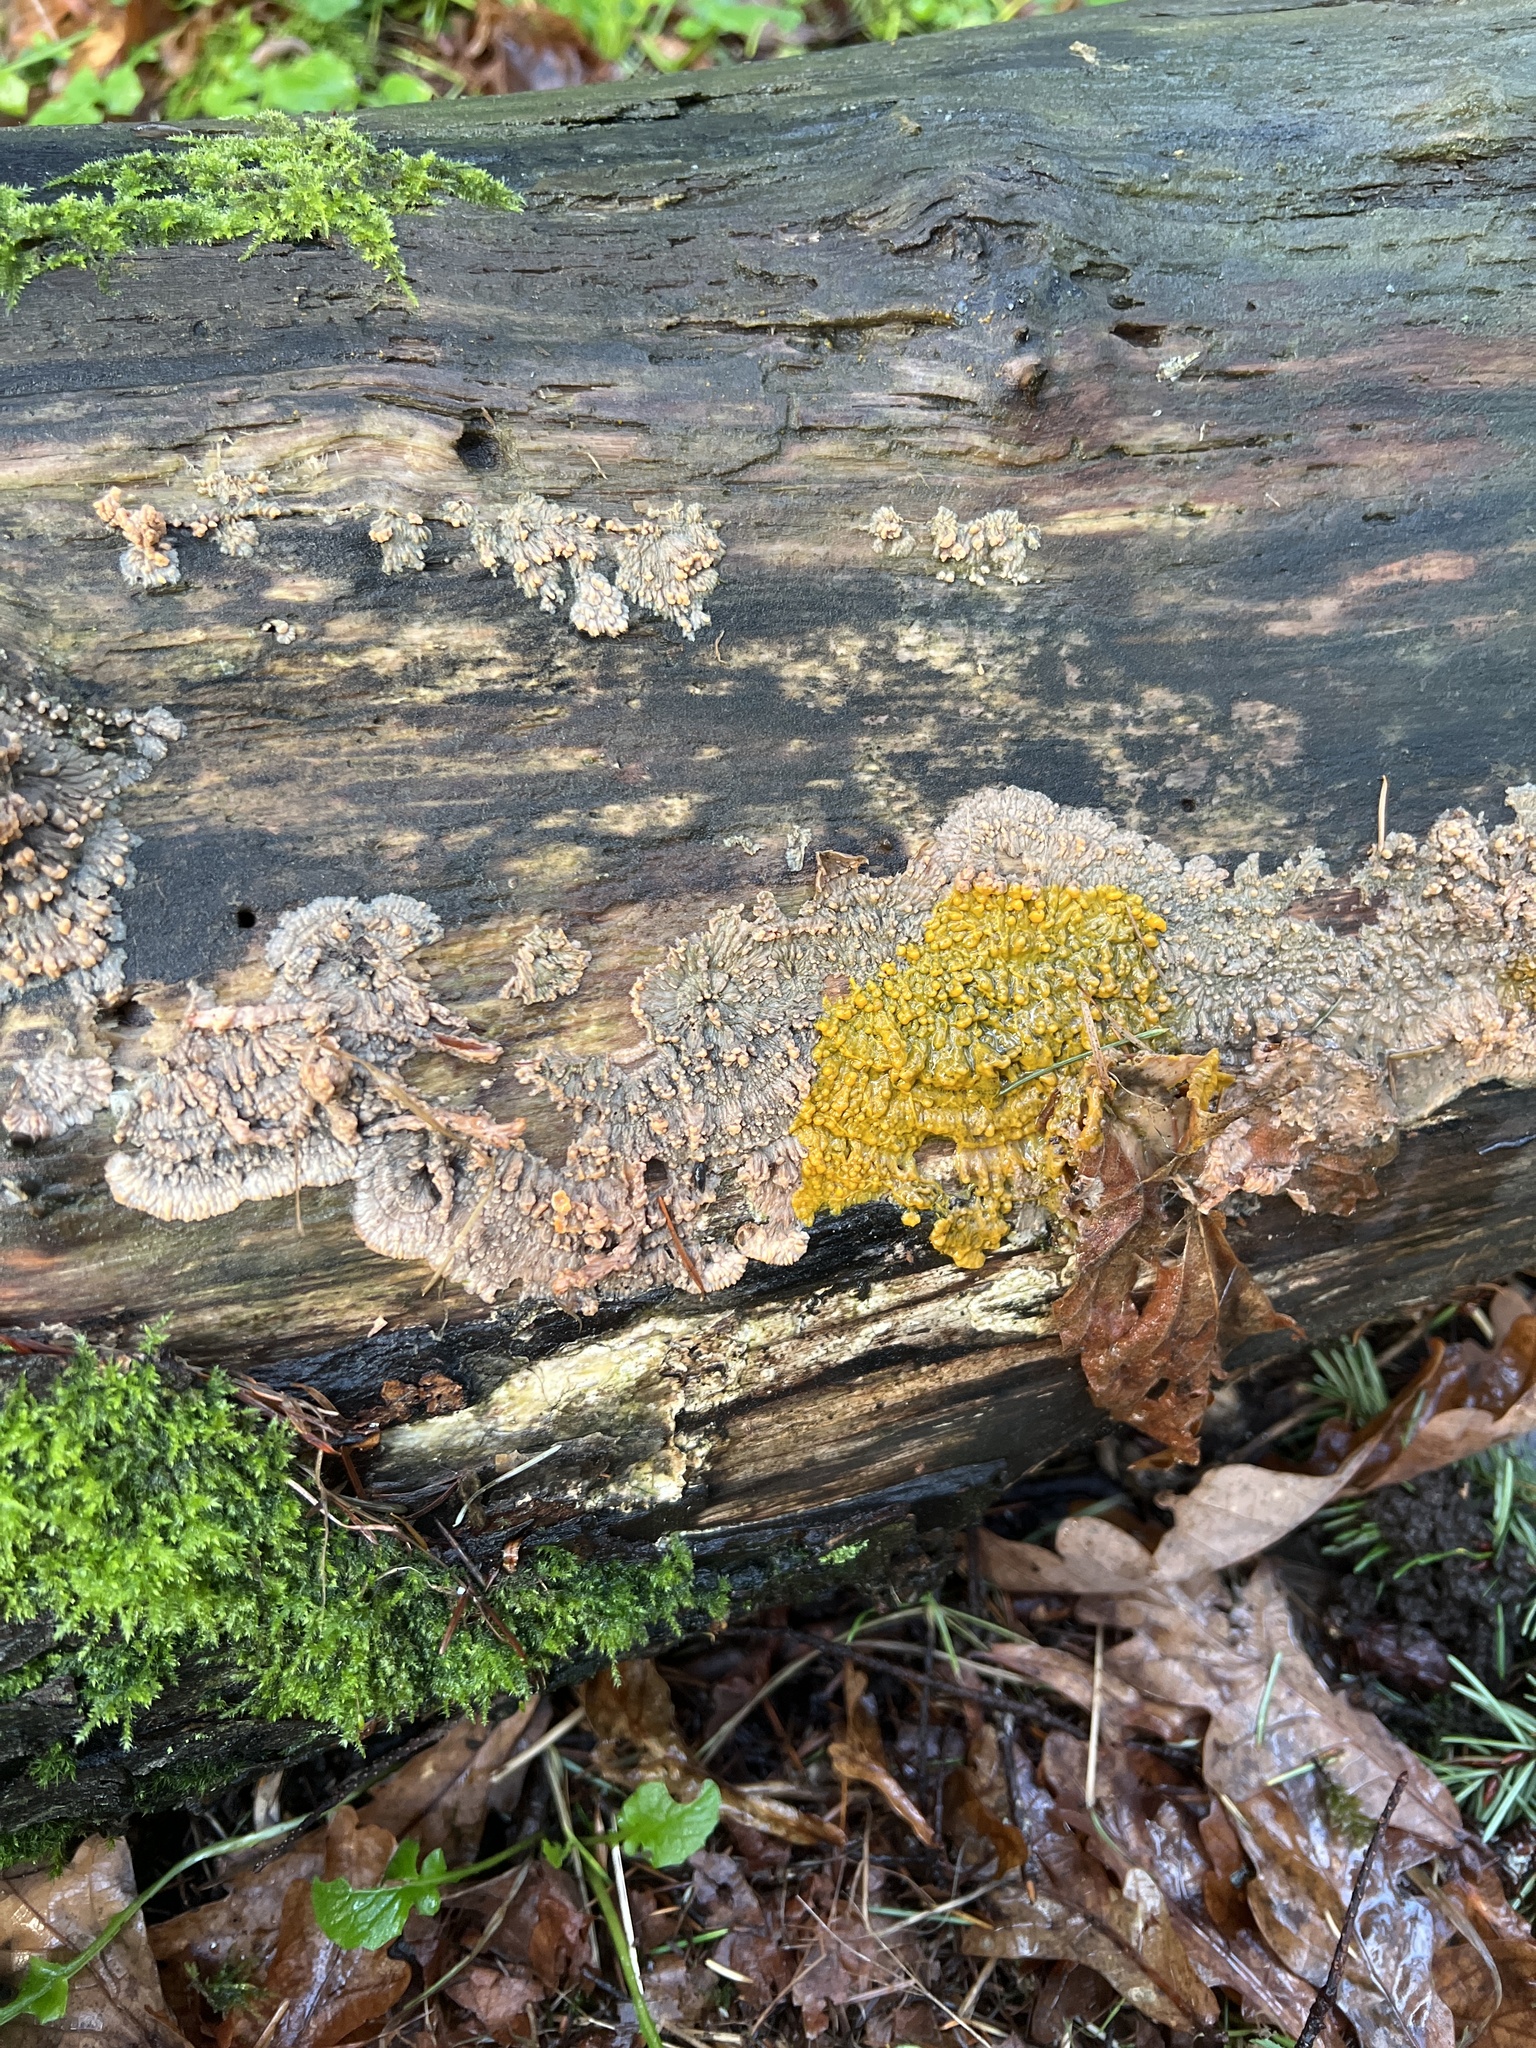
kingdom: Fungi
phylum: Basidiomycota
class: Agaricomycetes
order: Polyporales
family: Meruliaceae
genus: Phlebia
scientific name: Phlebia radiata
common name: Wrinkled crust
